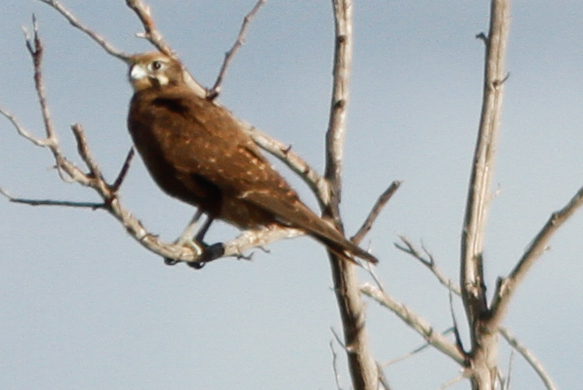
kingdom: Animalia
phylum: Chordata
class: Aves
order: Falconiformes
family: Falconidae
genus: Falco
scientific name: Falco berigora
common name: Brown falcon
